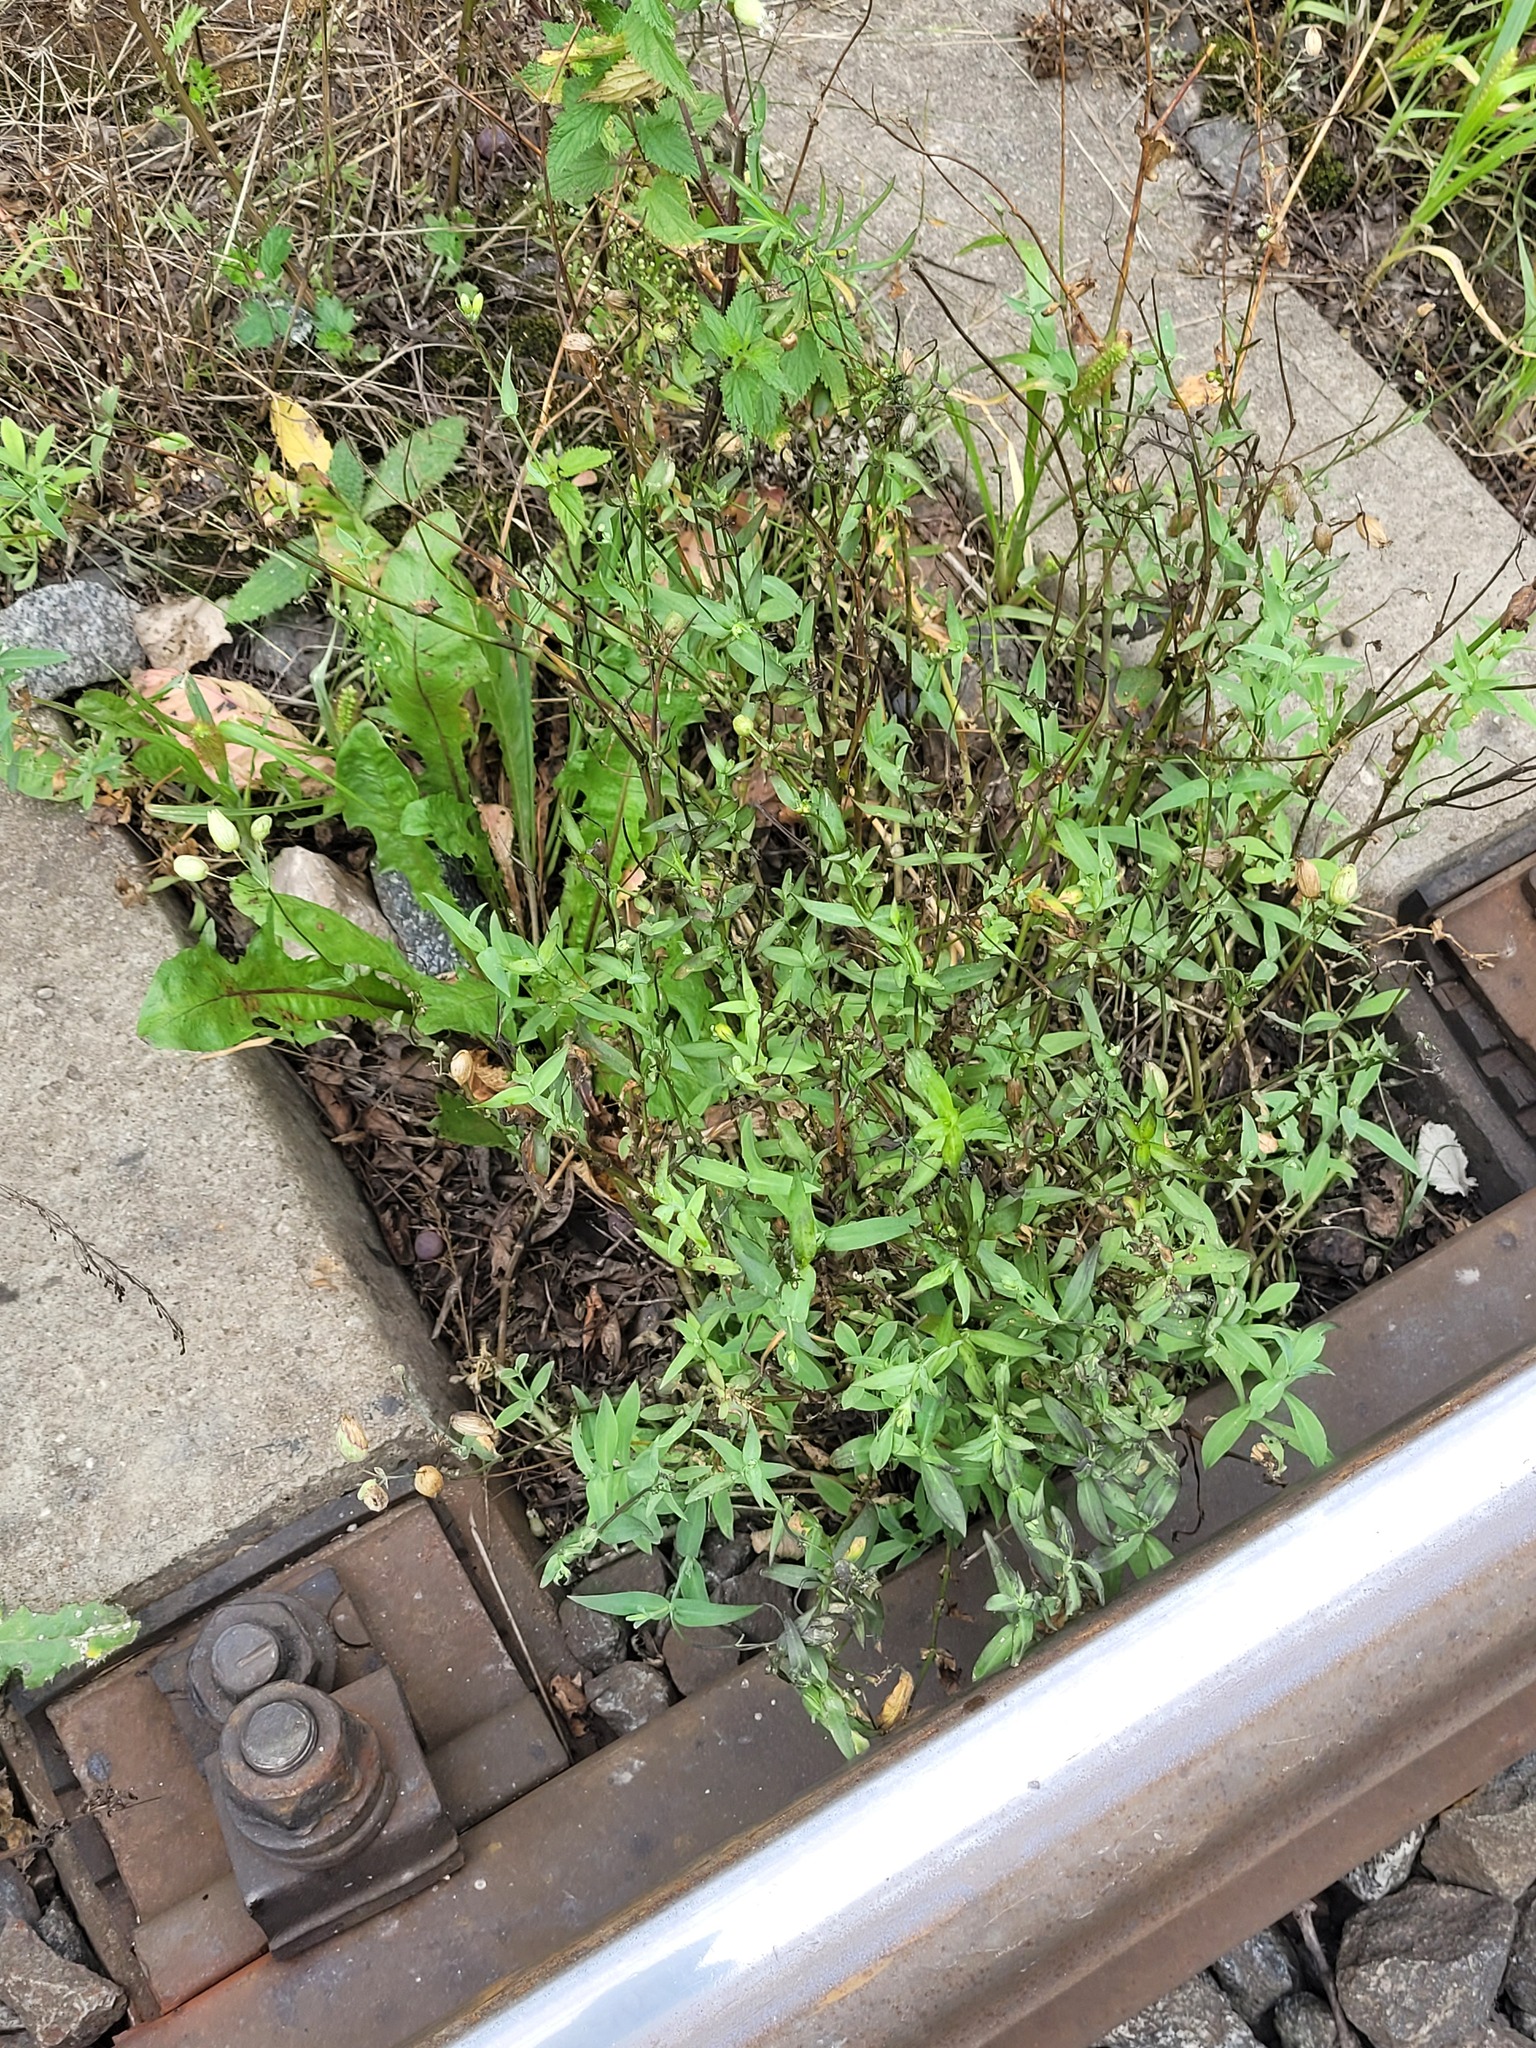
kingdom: Plantae
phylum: Tracheophyta
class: Magnoliopsida
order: Caryophyllales
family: Caryophyllaceae
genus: Silene
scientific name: Silene vulgaris
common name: Bladder campion
